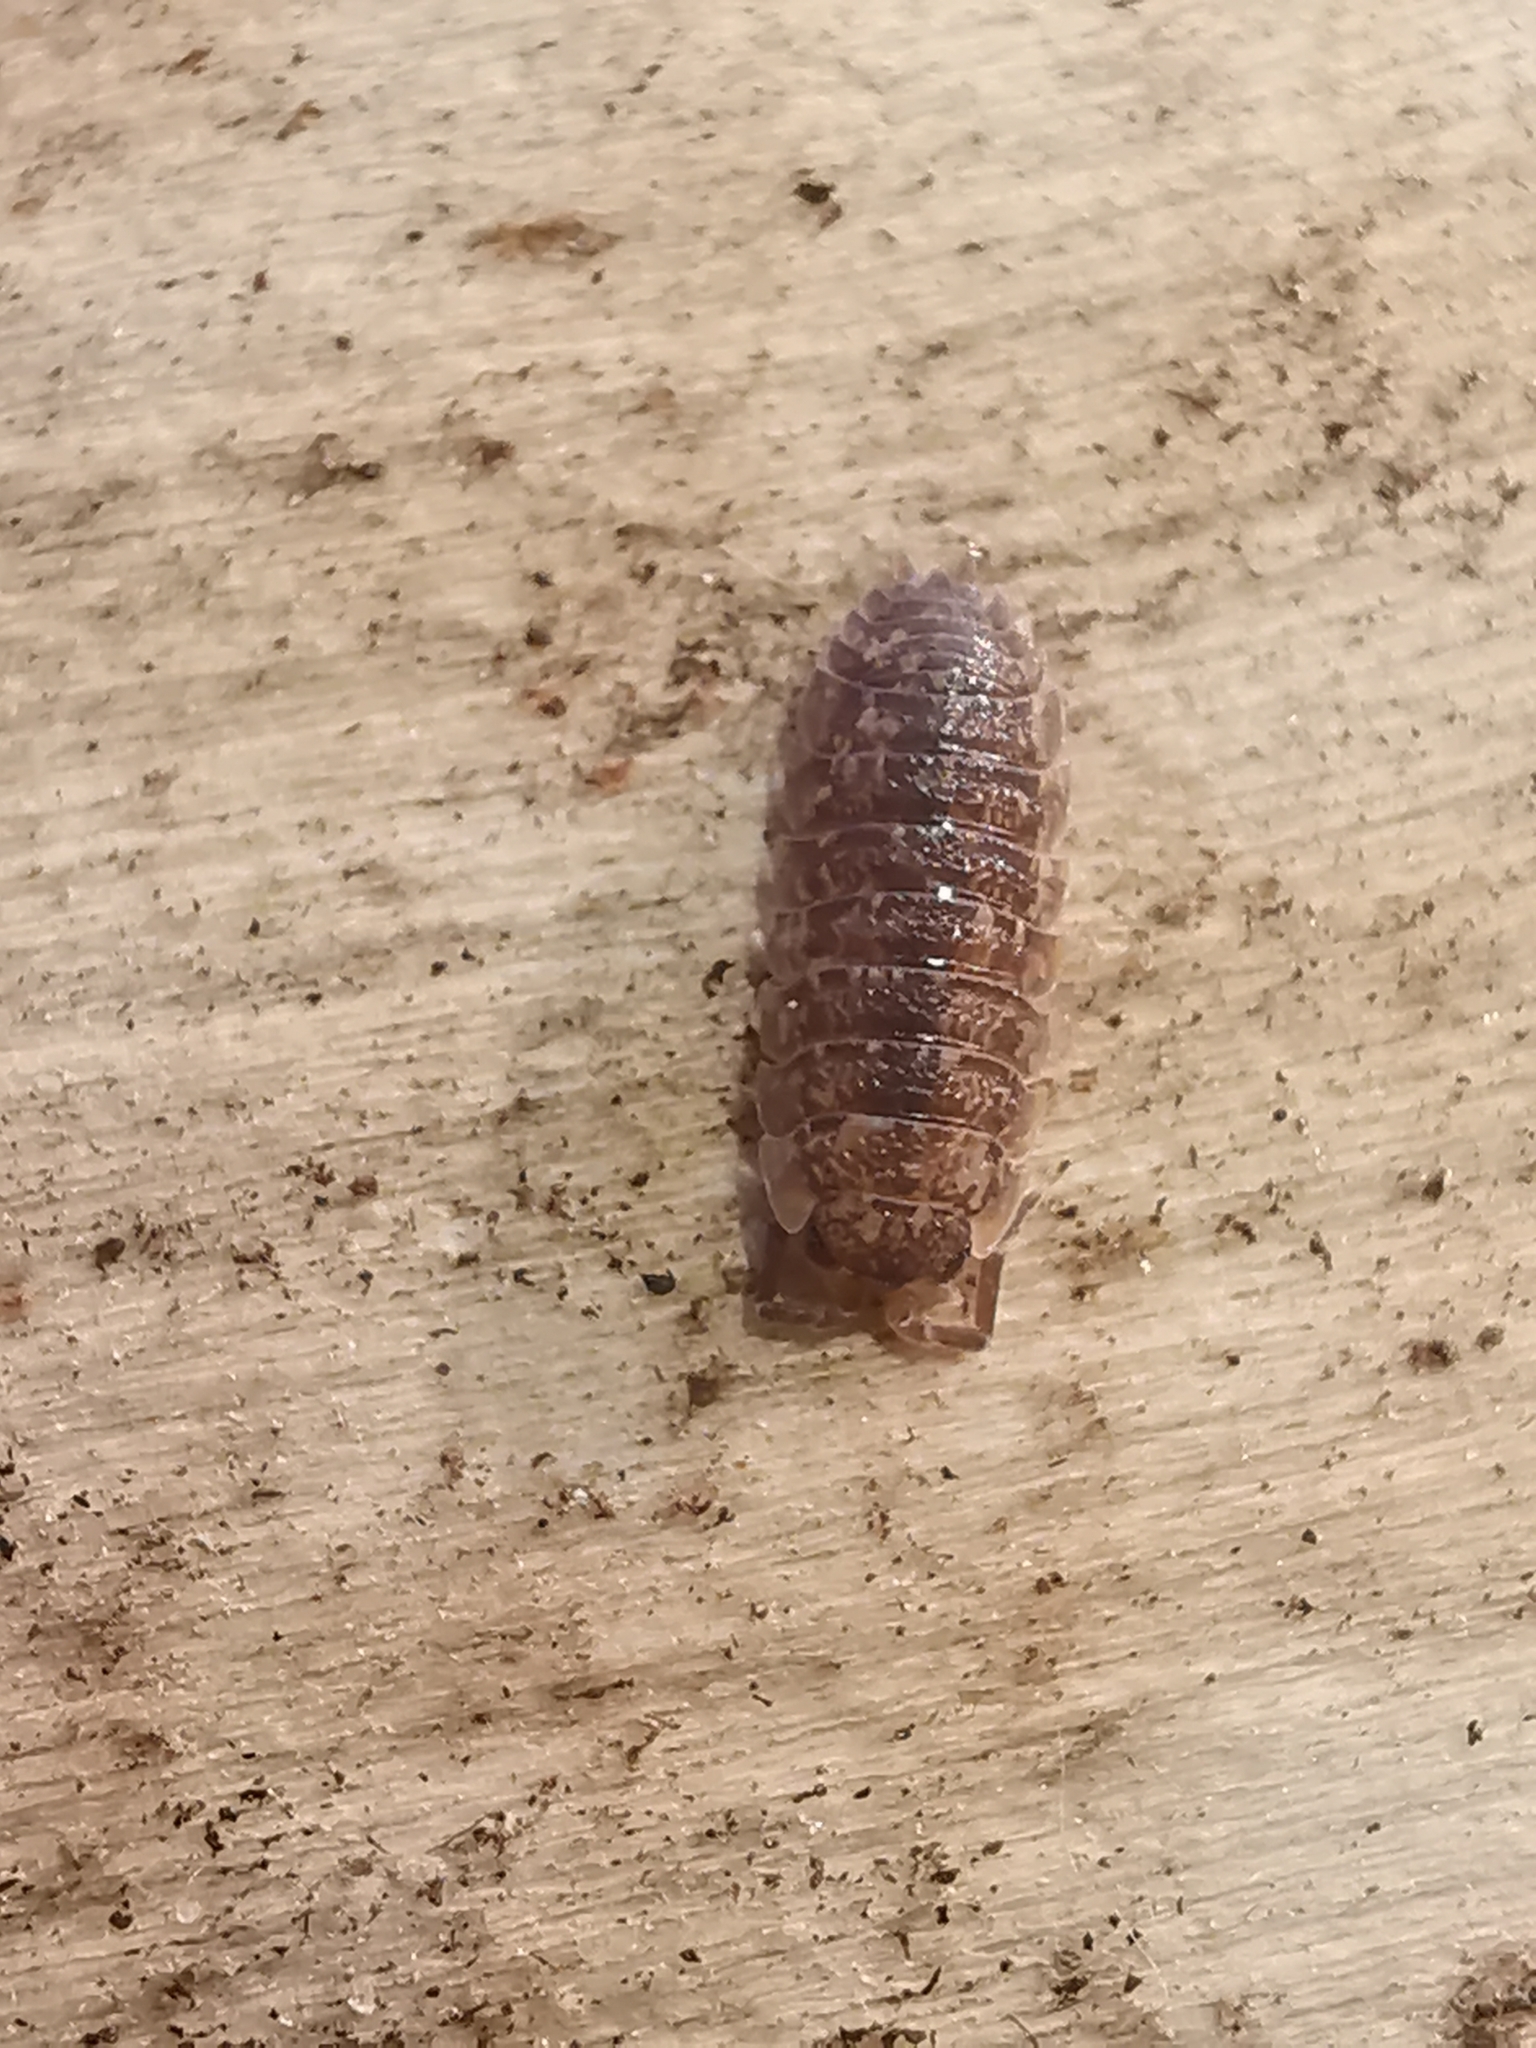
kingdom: Animalia
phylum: Arthropoda
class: Malacostraca
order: Isopoda
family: Porcellionidae
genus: Porcellio
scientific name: Porcellio scaber
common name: Common rough woodlouse
